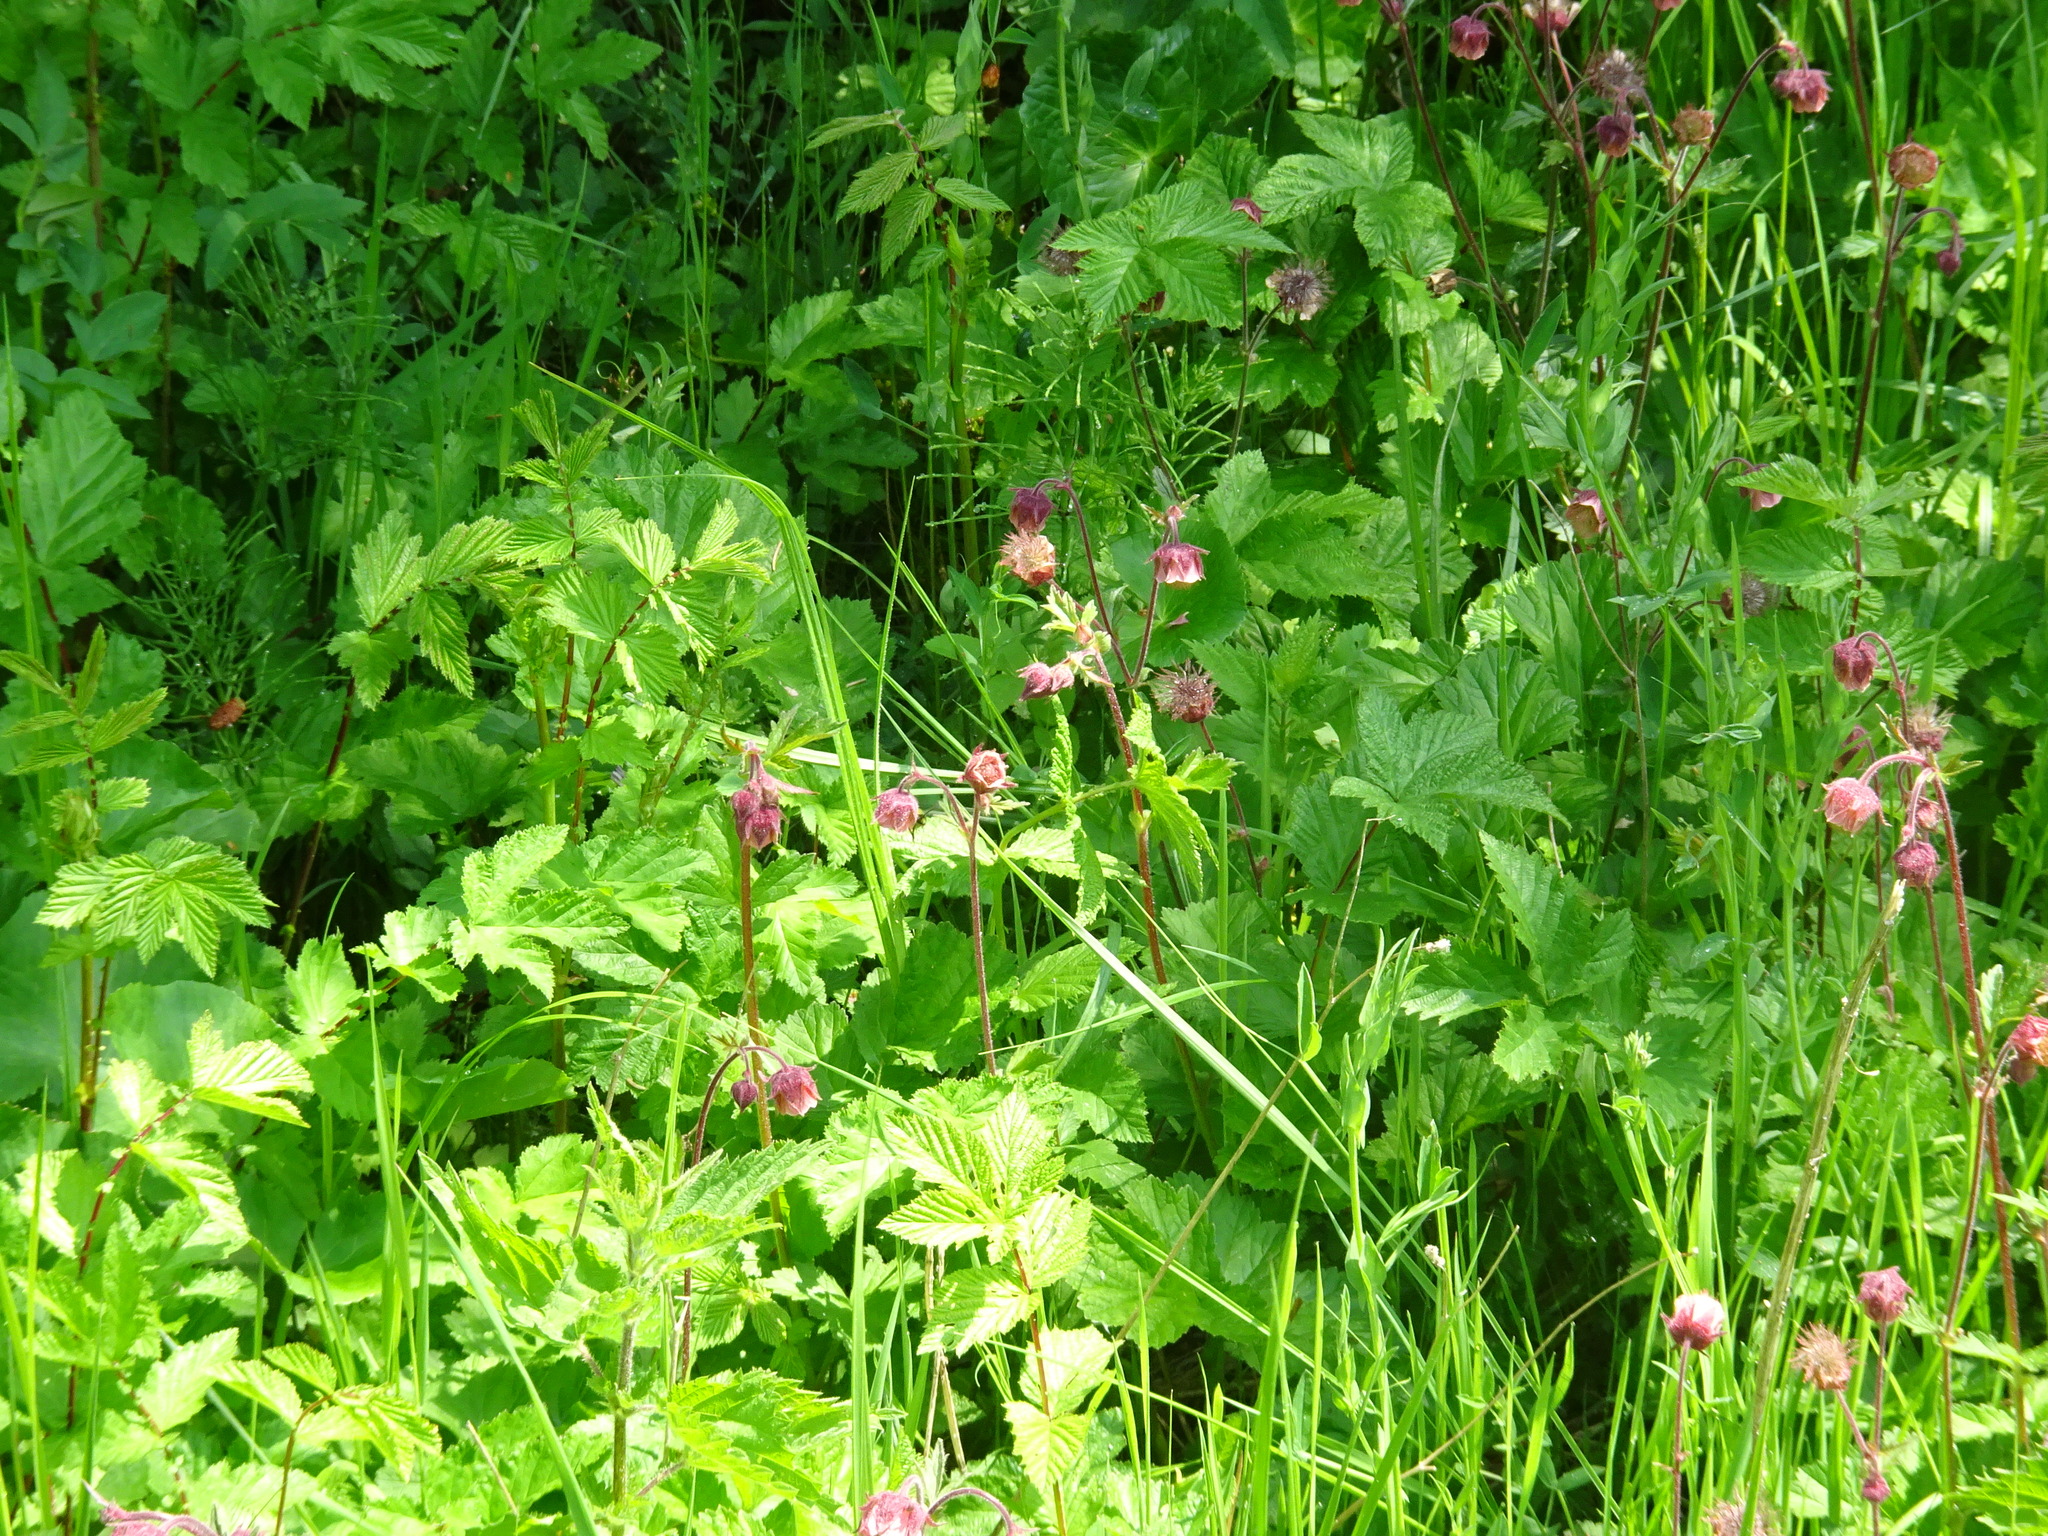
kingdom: Plantae
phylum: Tracheophyta
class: Magnoliopsida
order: Rosales
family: Rosaceae
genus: Geum
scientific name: Geum rivale
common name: Water avens
